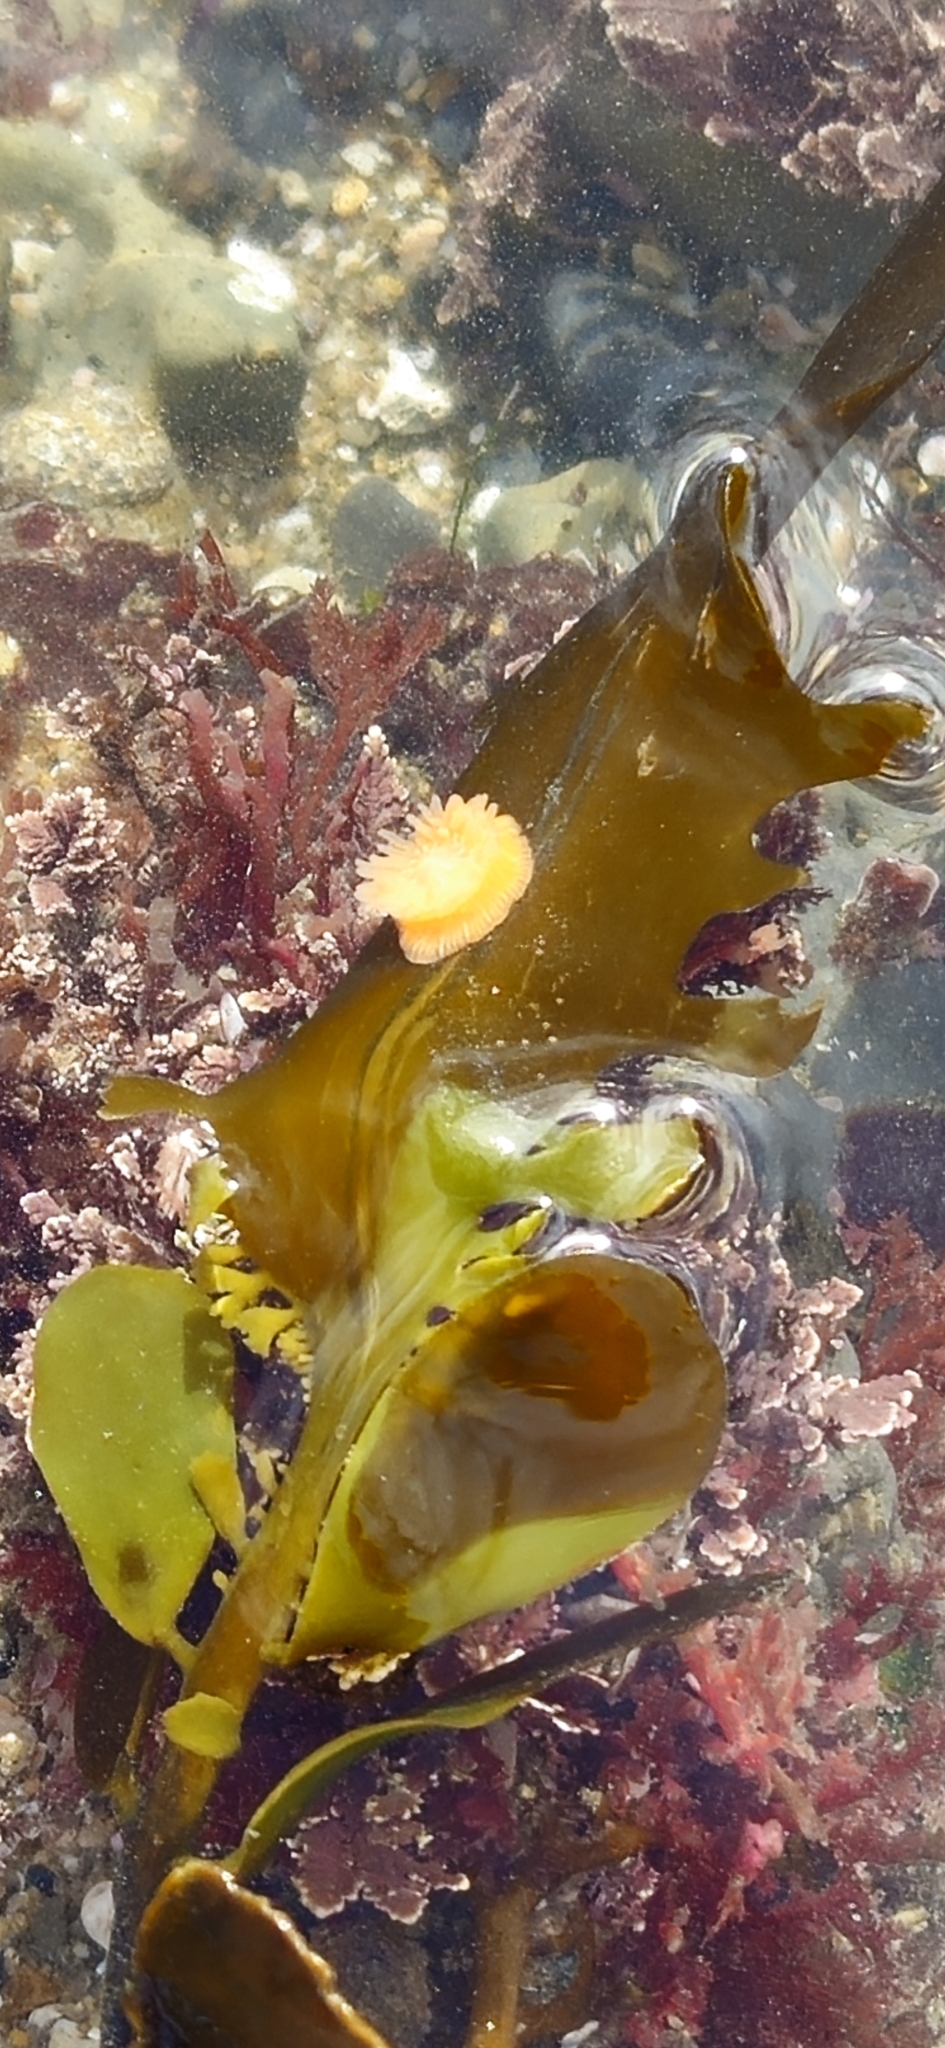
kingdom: Animalia
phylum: Cnidaria
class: Anthozoa
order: Actiniaria
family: Actiniidae
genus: Epiactis
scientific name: Epiactis prolifera
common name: Brooding anemone
